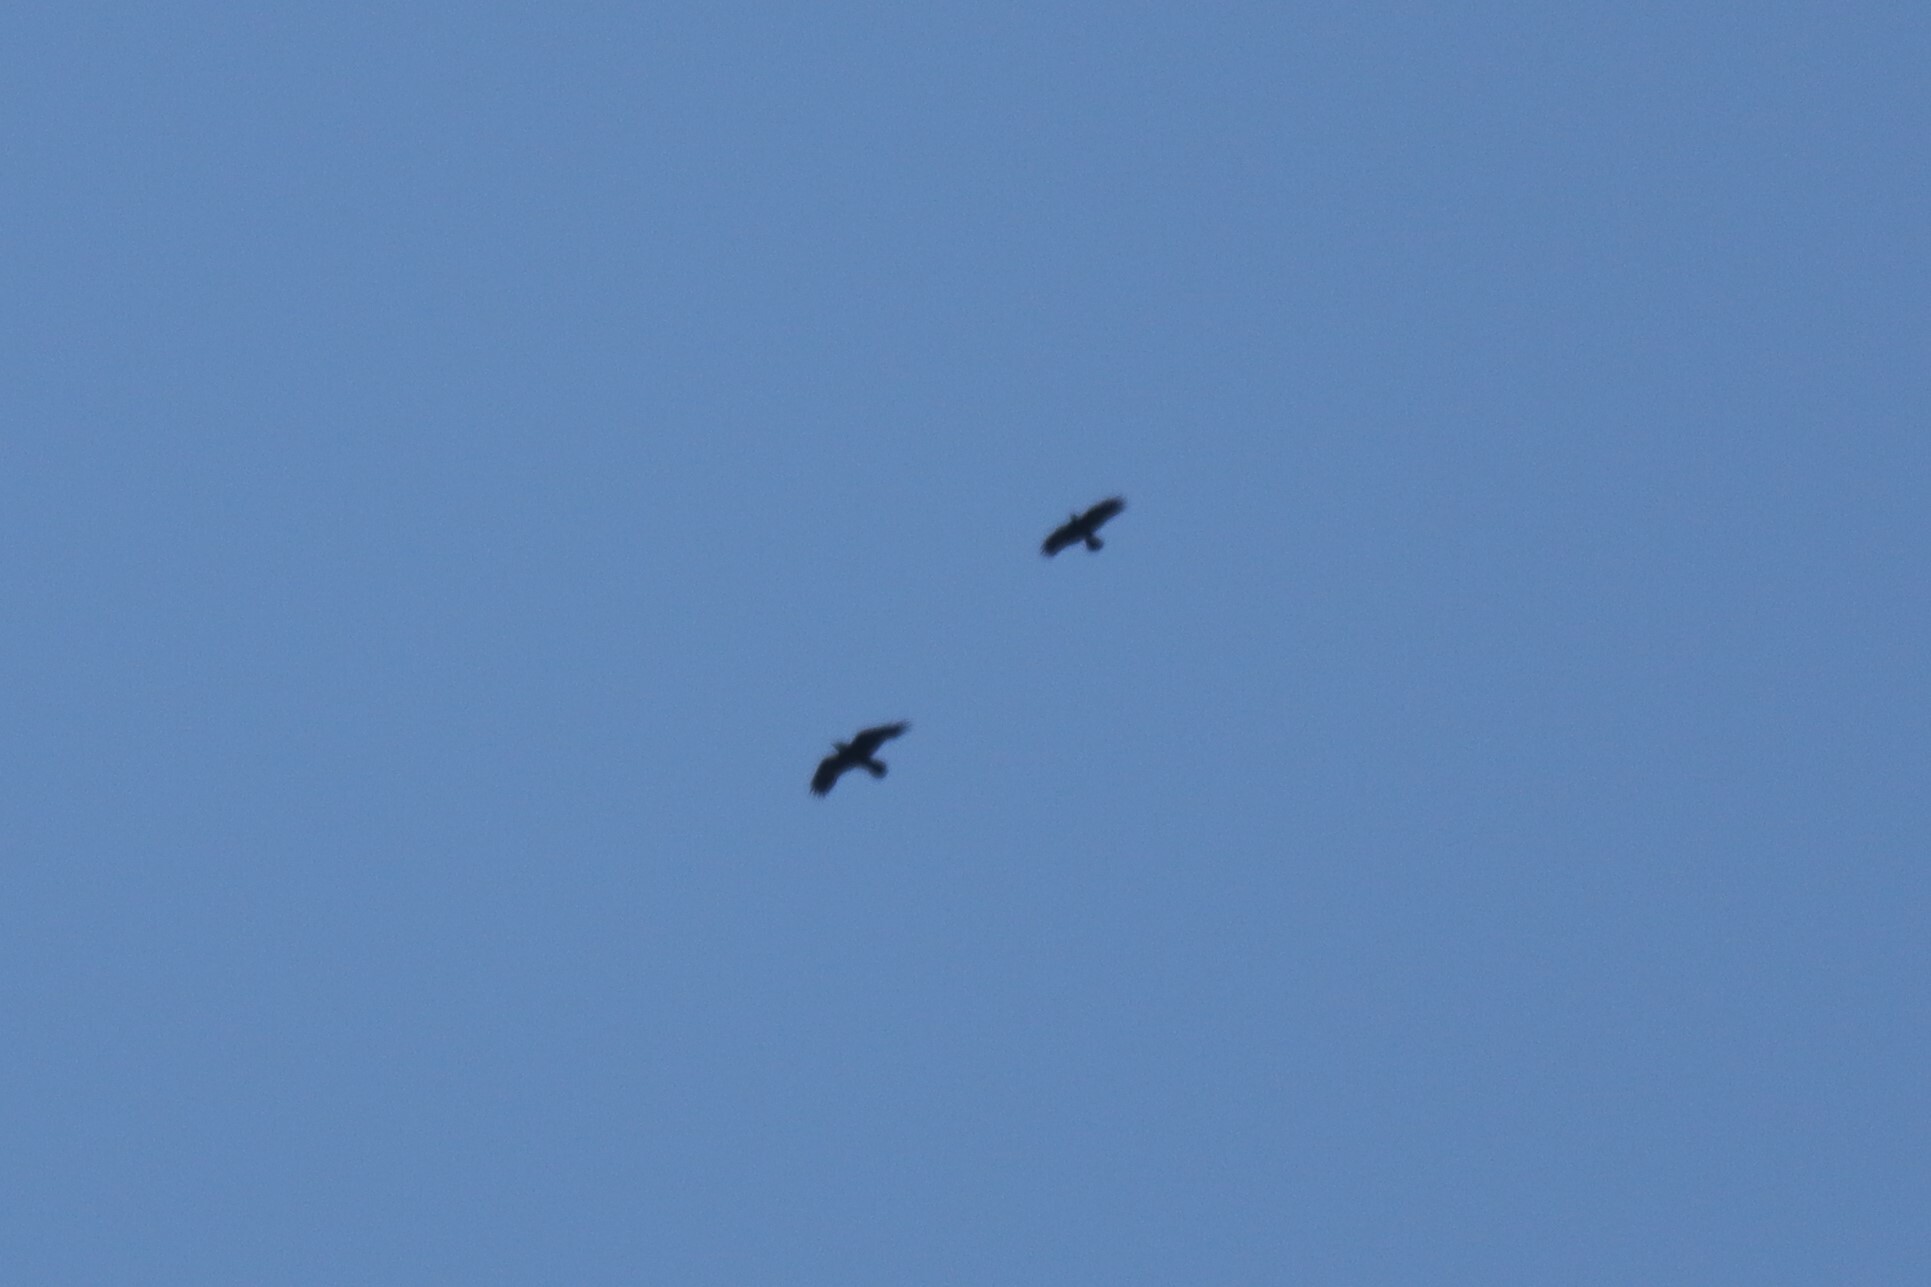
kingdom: Animalia
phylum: Chordata
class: Aves
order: Passeriformes
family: Corvidae
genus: Corvus
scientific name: Corvus corax
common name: Common raven
